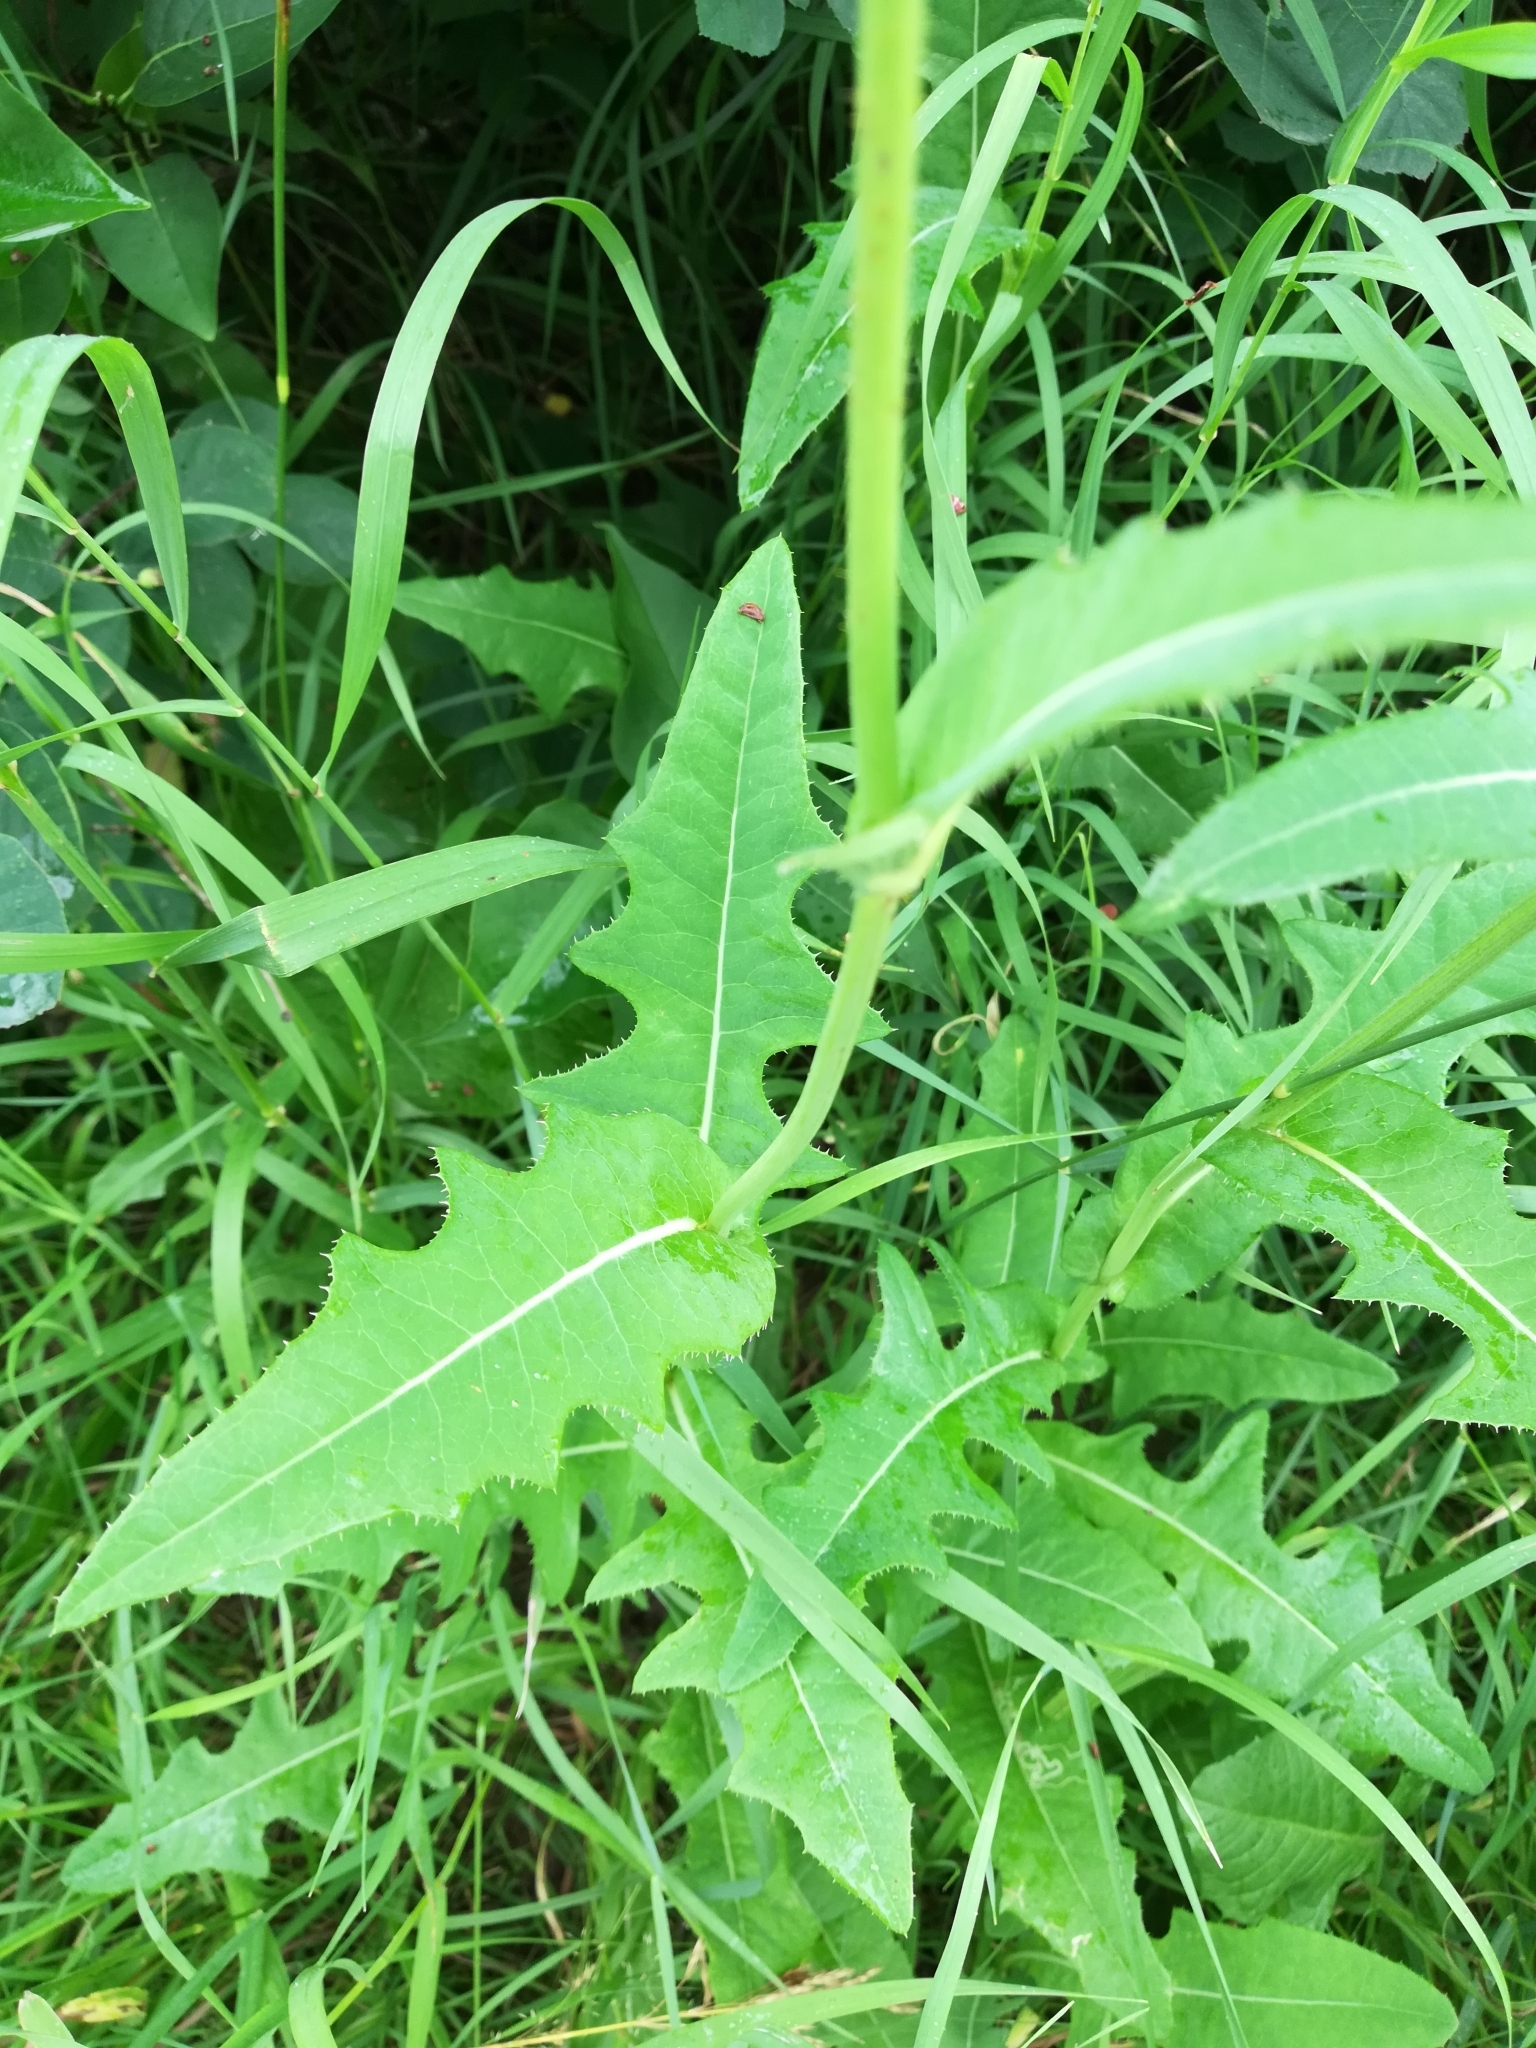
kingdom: Plantae
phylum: Tracheophyta
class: Magnoliopsida
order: Asterales
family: Asteraceae
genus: Sonchus
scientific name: Sonchus arvensis
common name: Perennial sow-thistle
